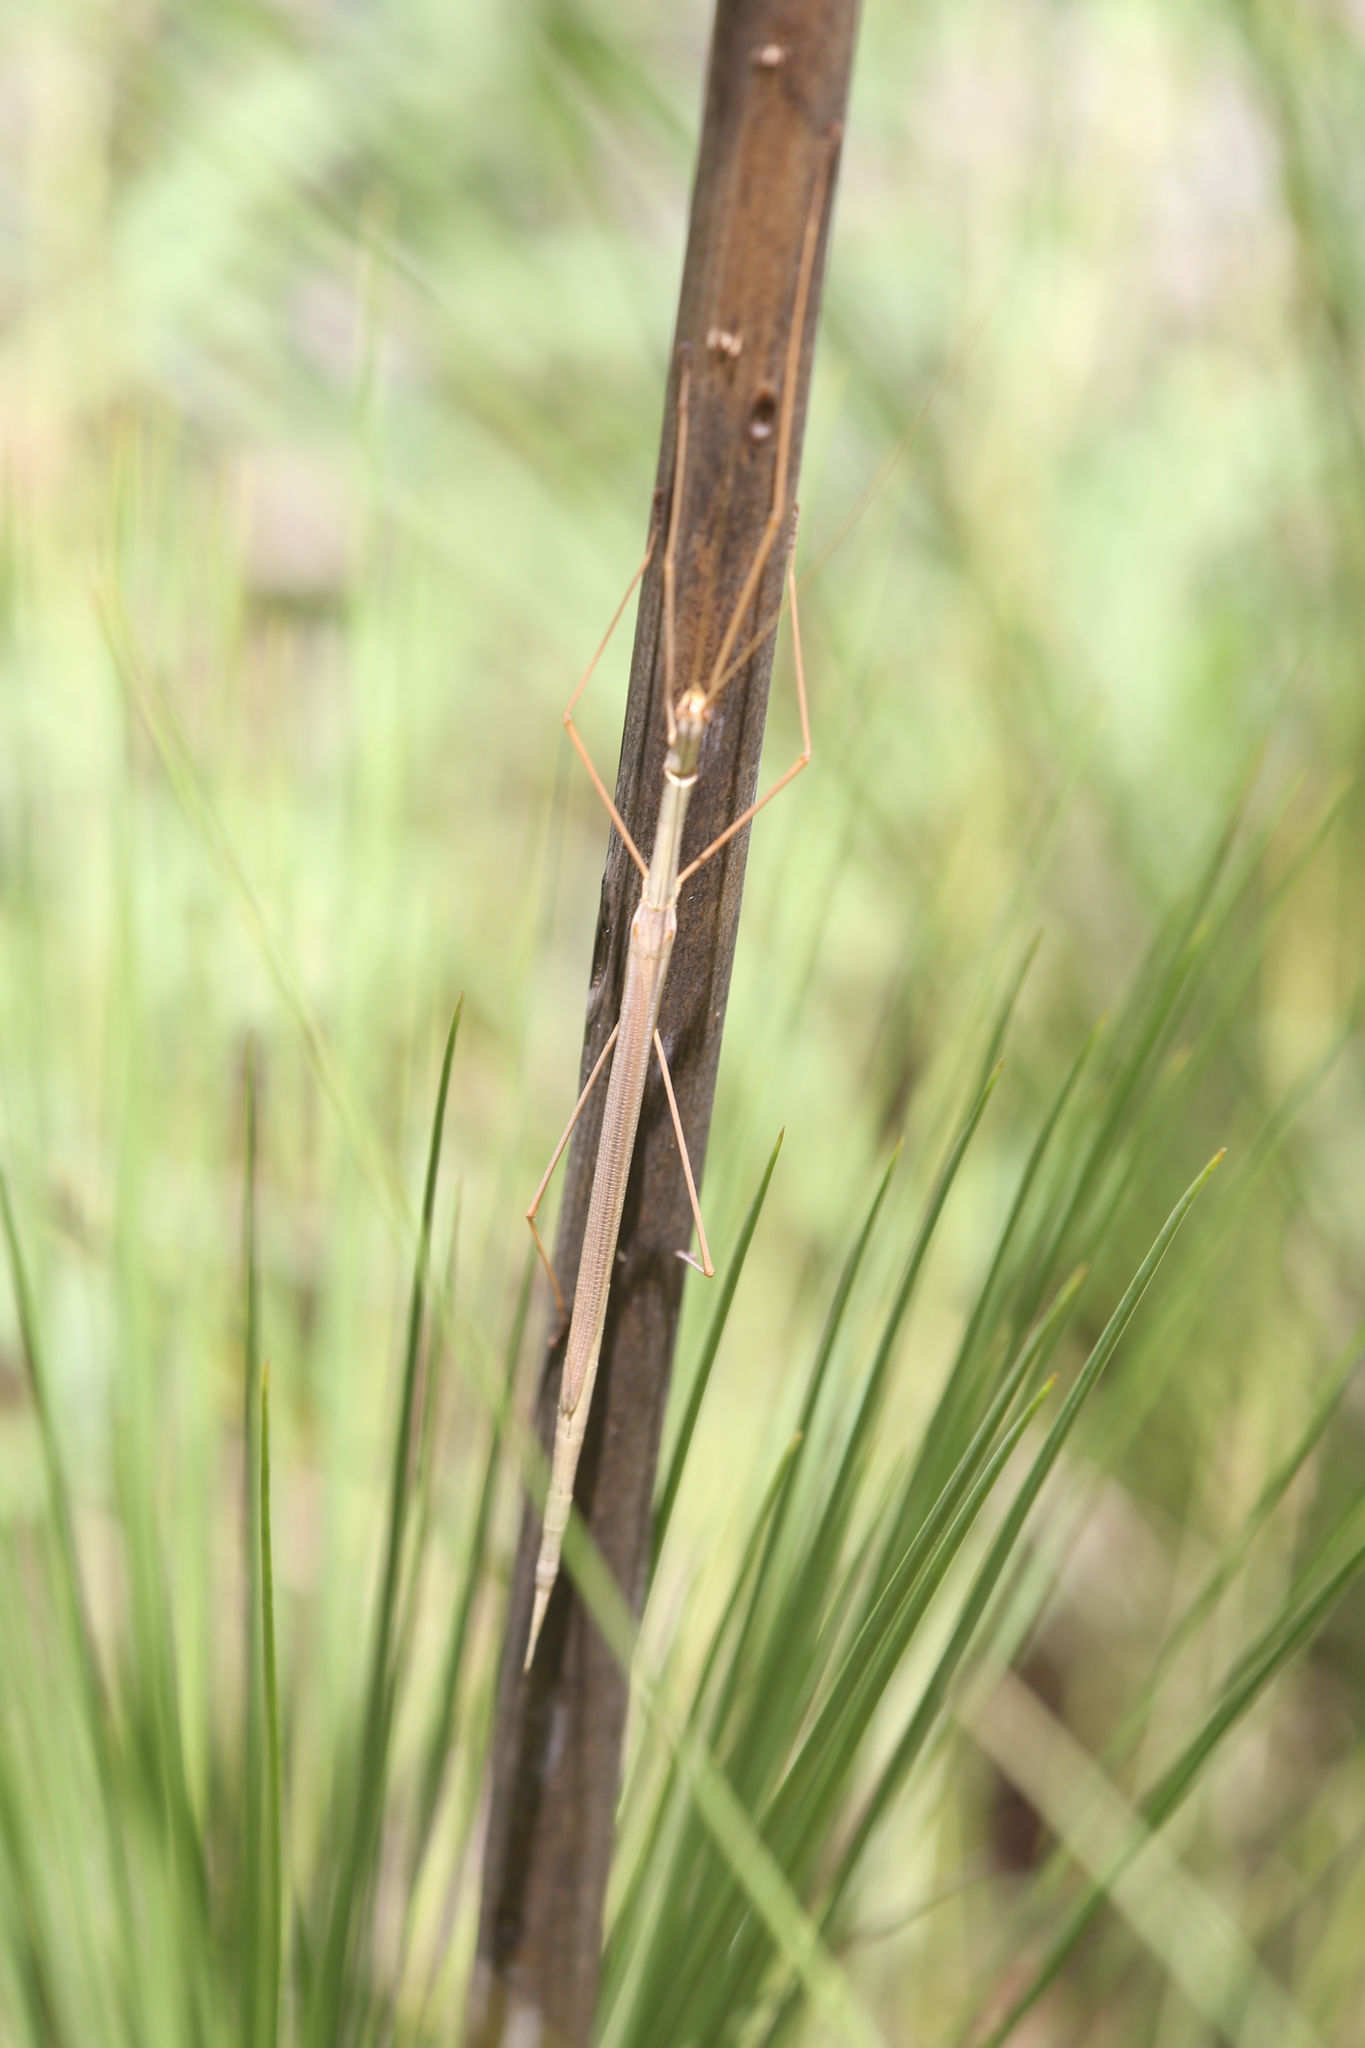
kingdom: Animalia
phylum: Arthropoda
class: Insecta
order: Phasmida
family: Lonchodidae
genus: Austrosipyloidea
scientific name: Austrosipyloidea carterus
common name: Black-striped stick-insect
